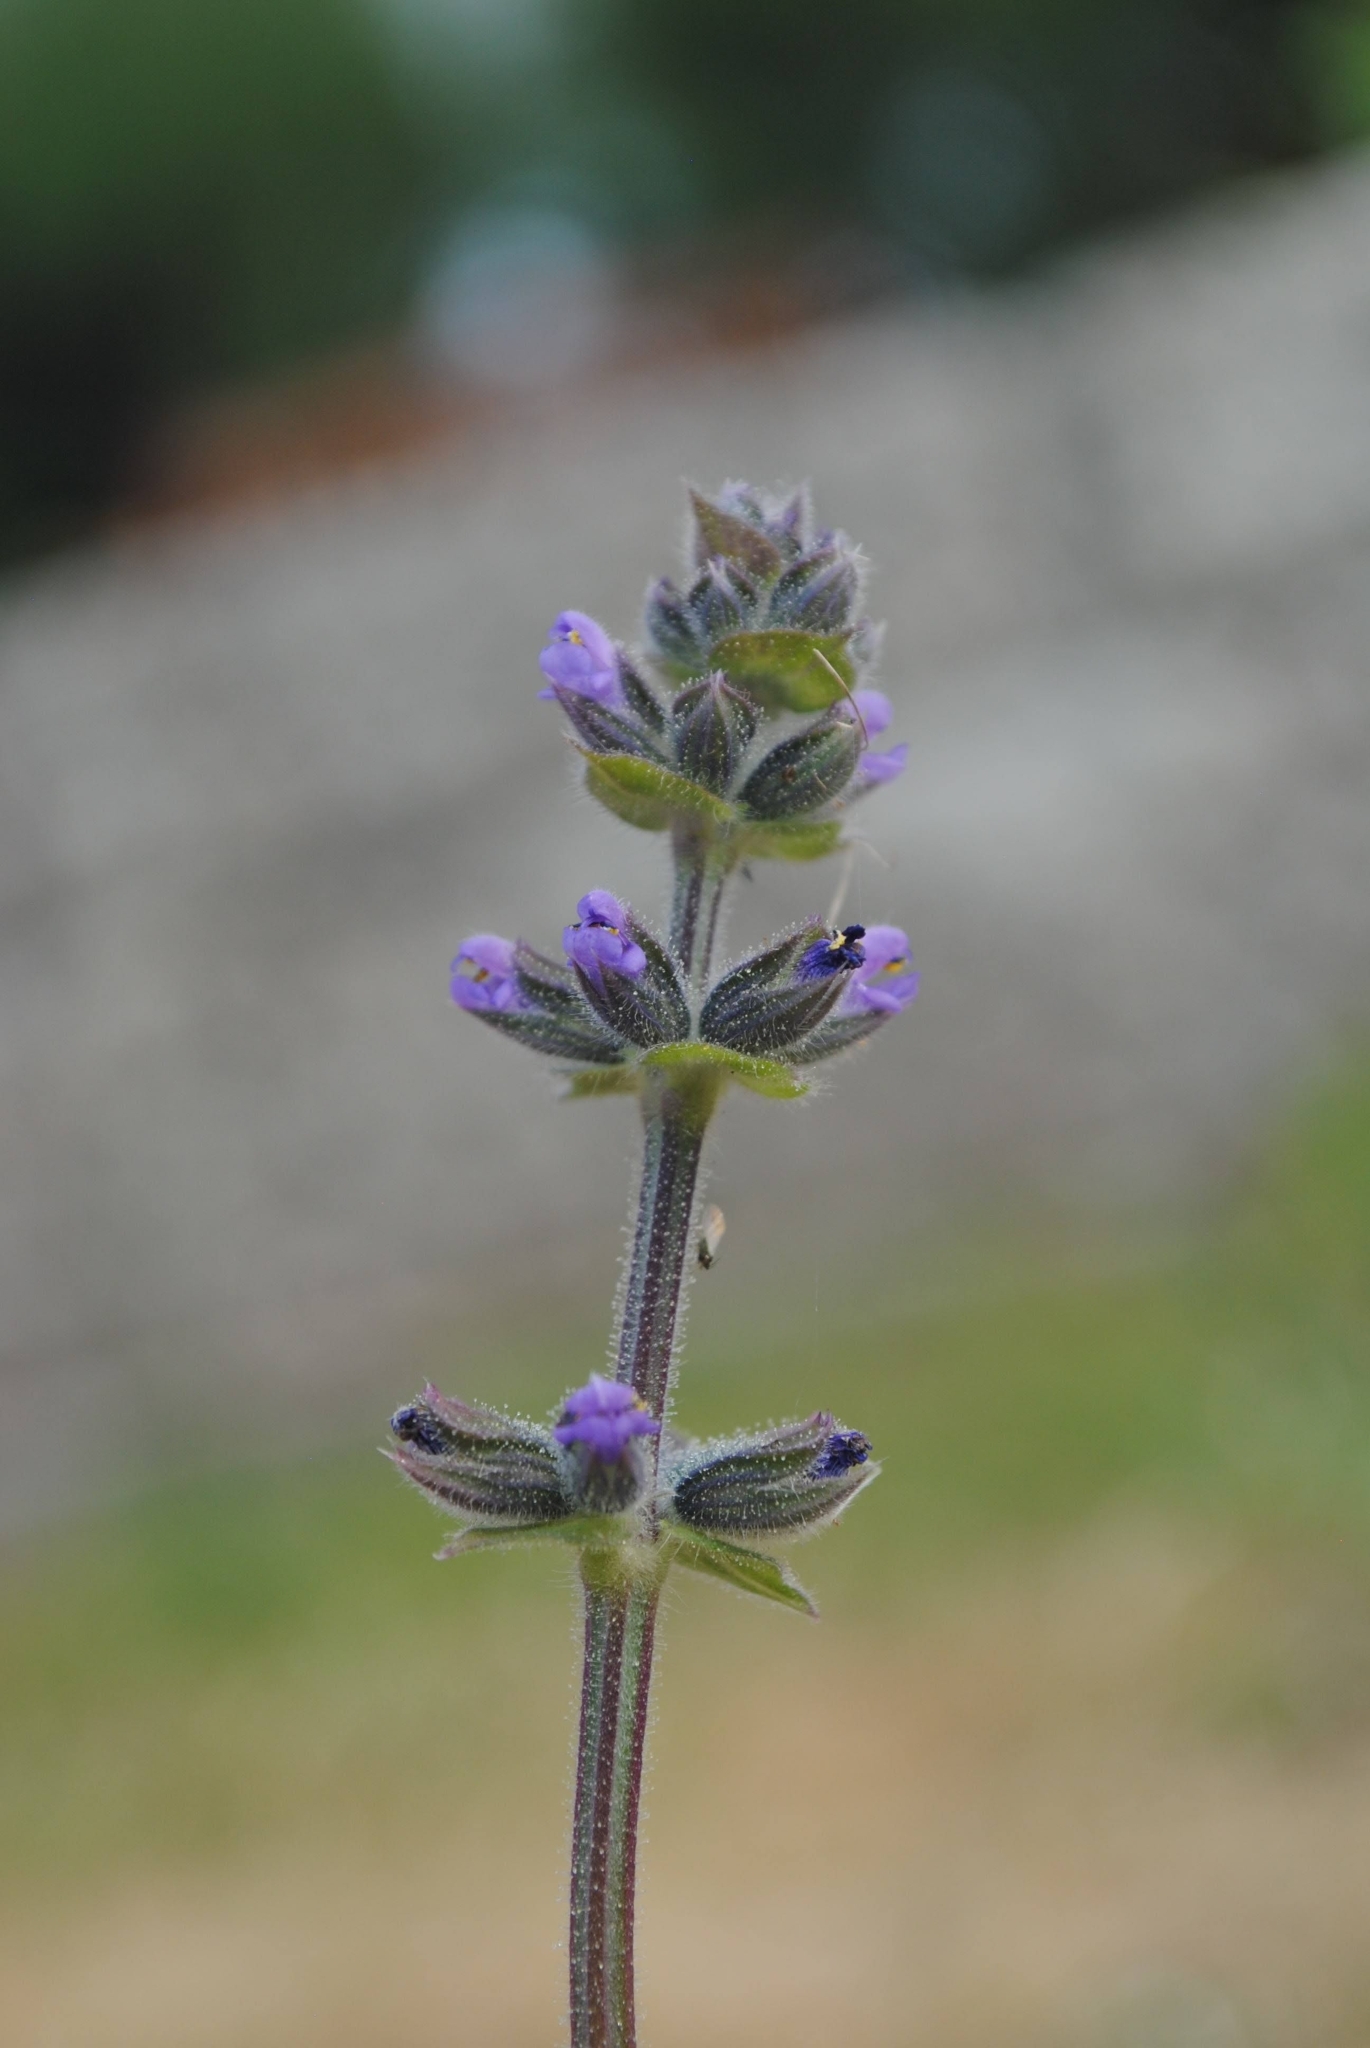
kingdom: Plantae
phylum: Tracheophyta
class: Magnoliopsida
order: Lamiales
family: Lamiaceae
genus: Salvia
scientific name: Salvia verbenaca
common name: Wild clary
